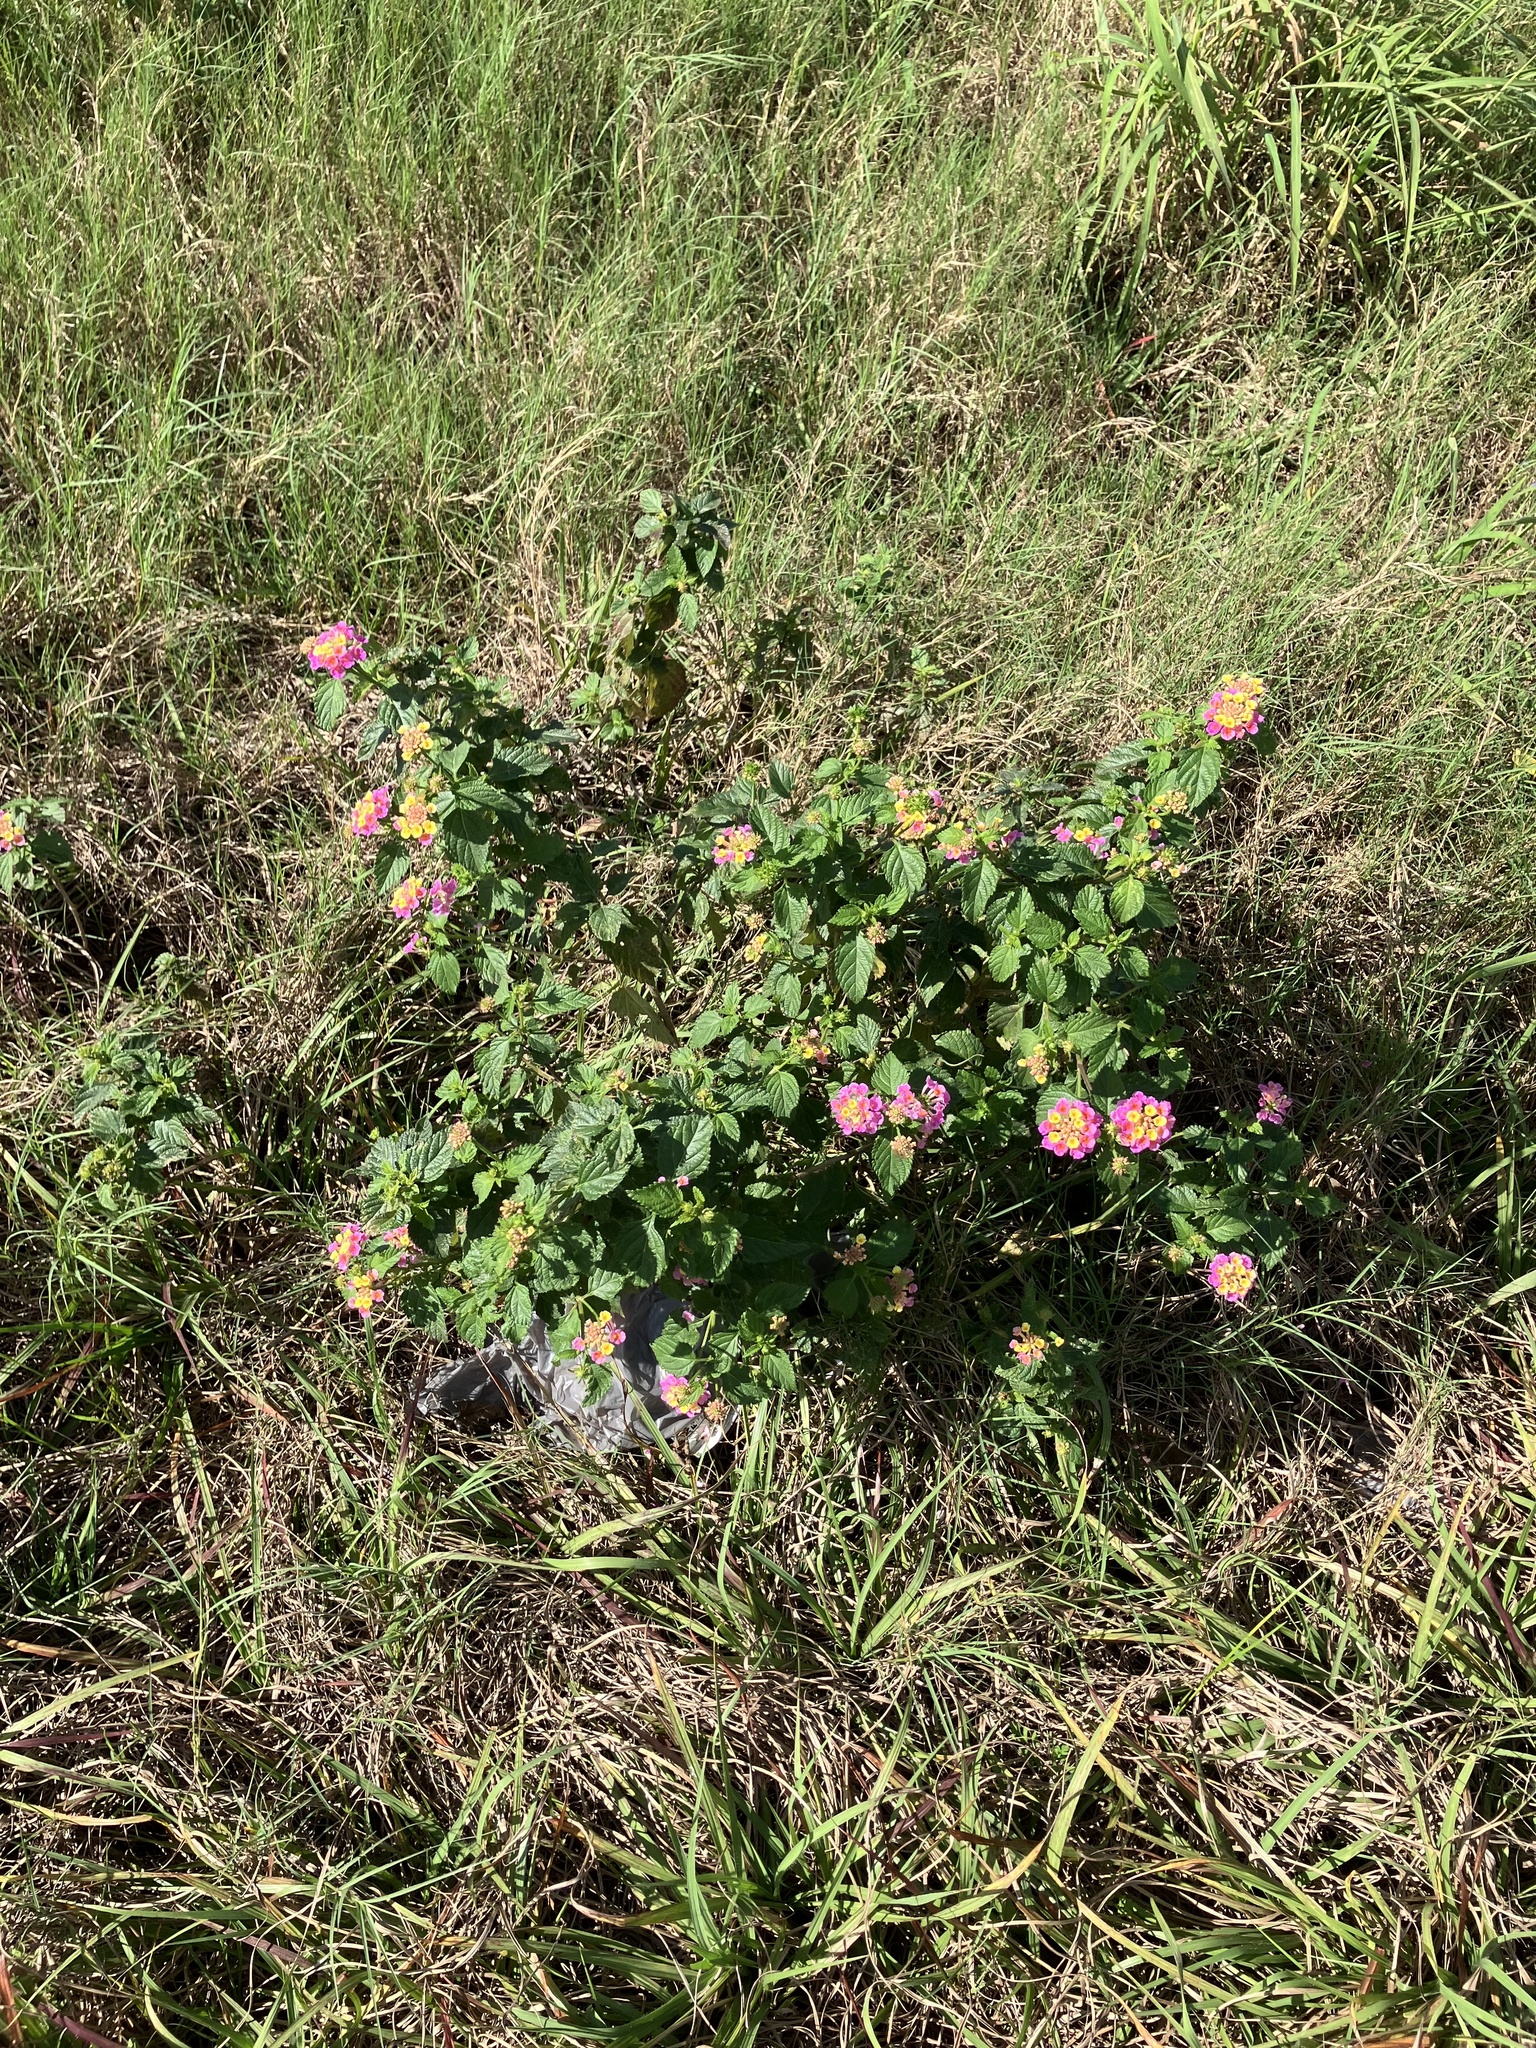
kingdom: Plantae
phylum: Tracheophyta
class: Magnoliopsida
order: Lamiales
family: Verbenaceae
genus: Lantana
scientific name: Lantana strigocamara
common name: Lantana
